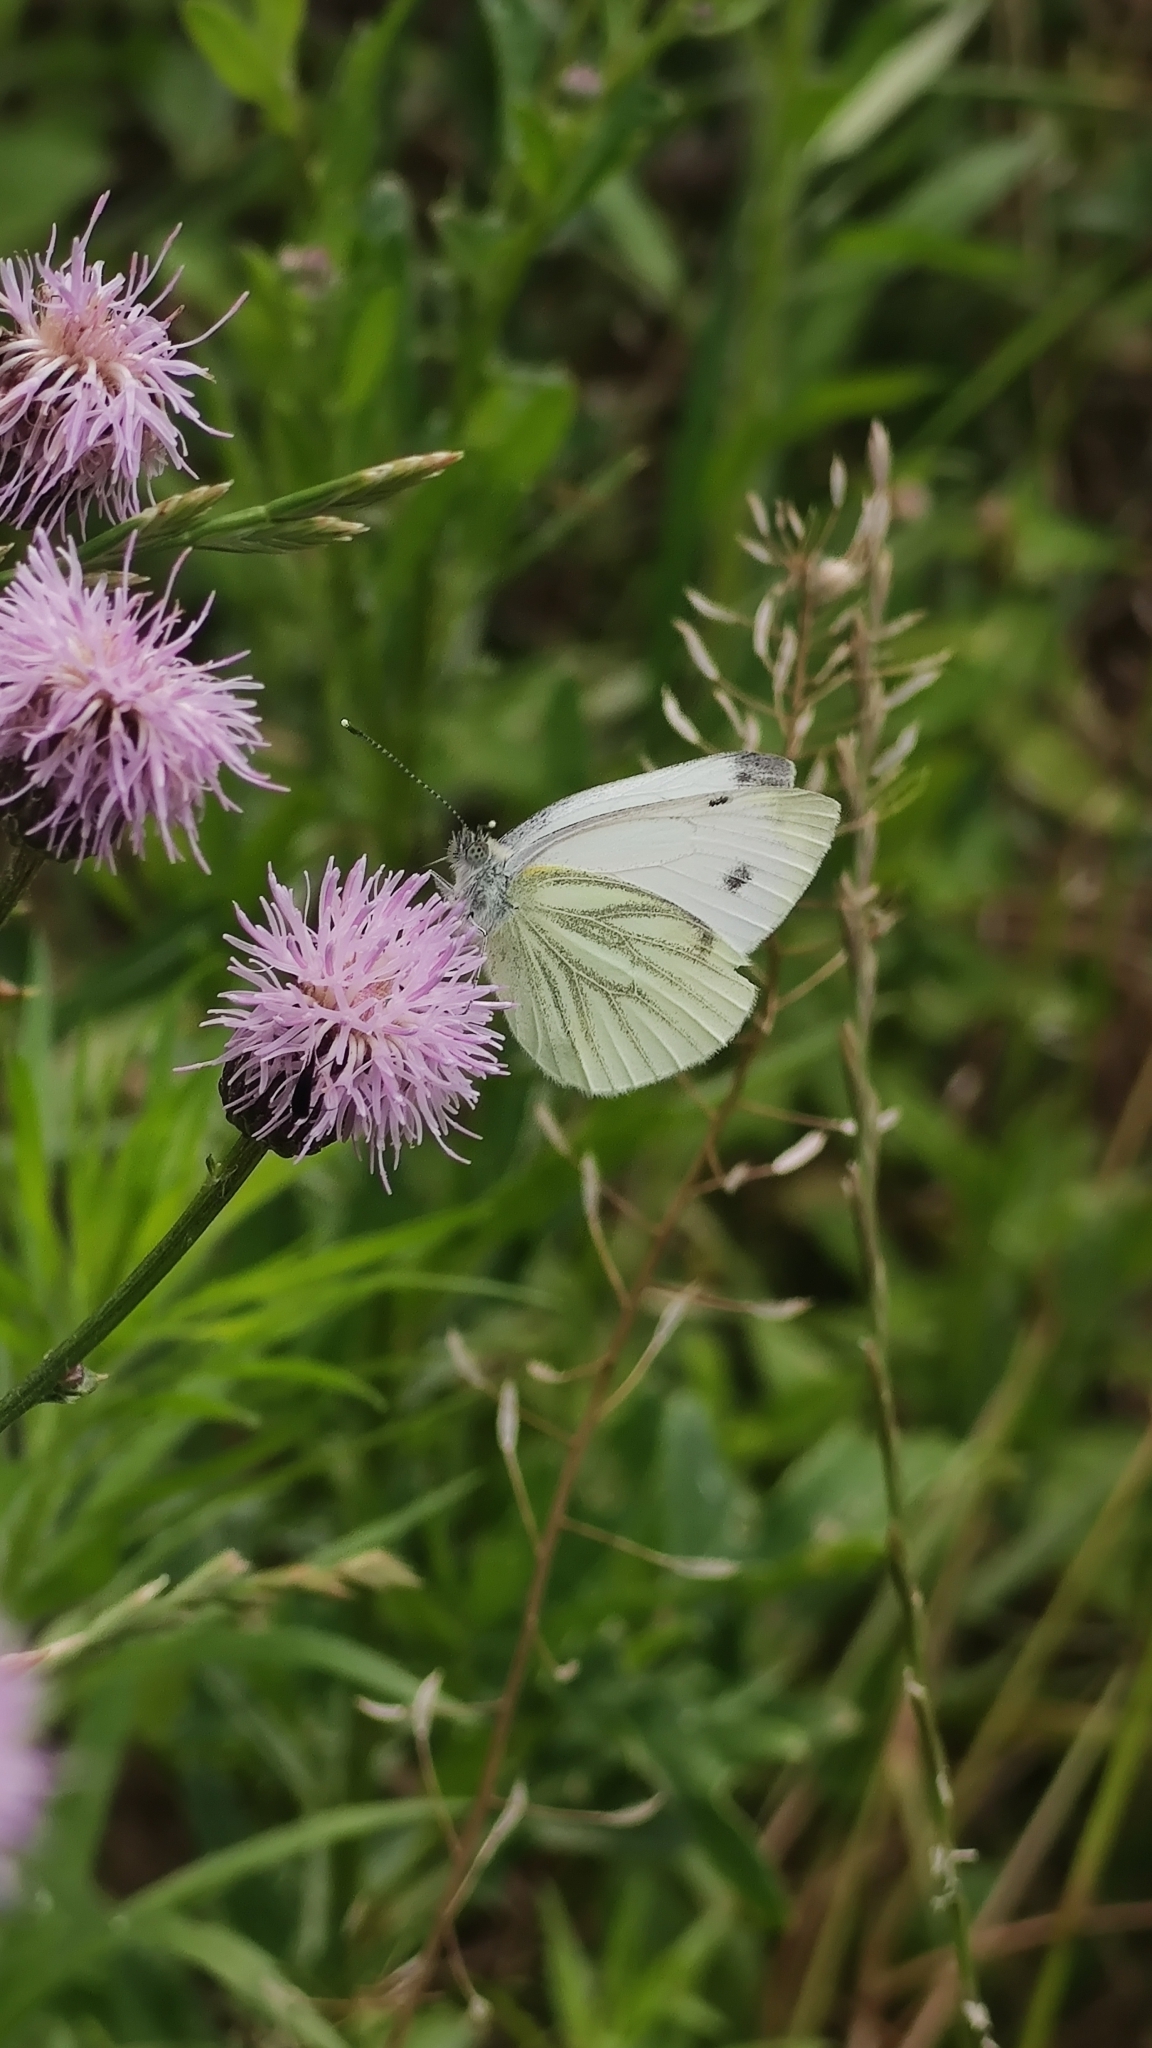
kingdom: Animalia
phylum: Arthropoda
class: Insecta
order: Lepidoptera
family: Pieridae
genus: Pieris
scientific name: Pieris napi
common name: Green-veined white
